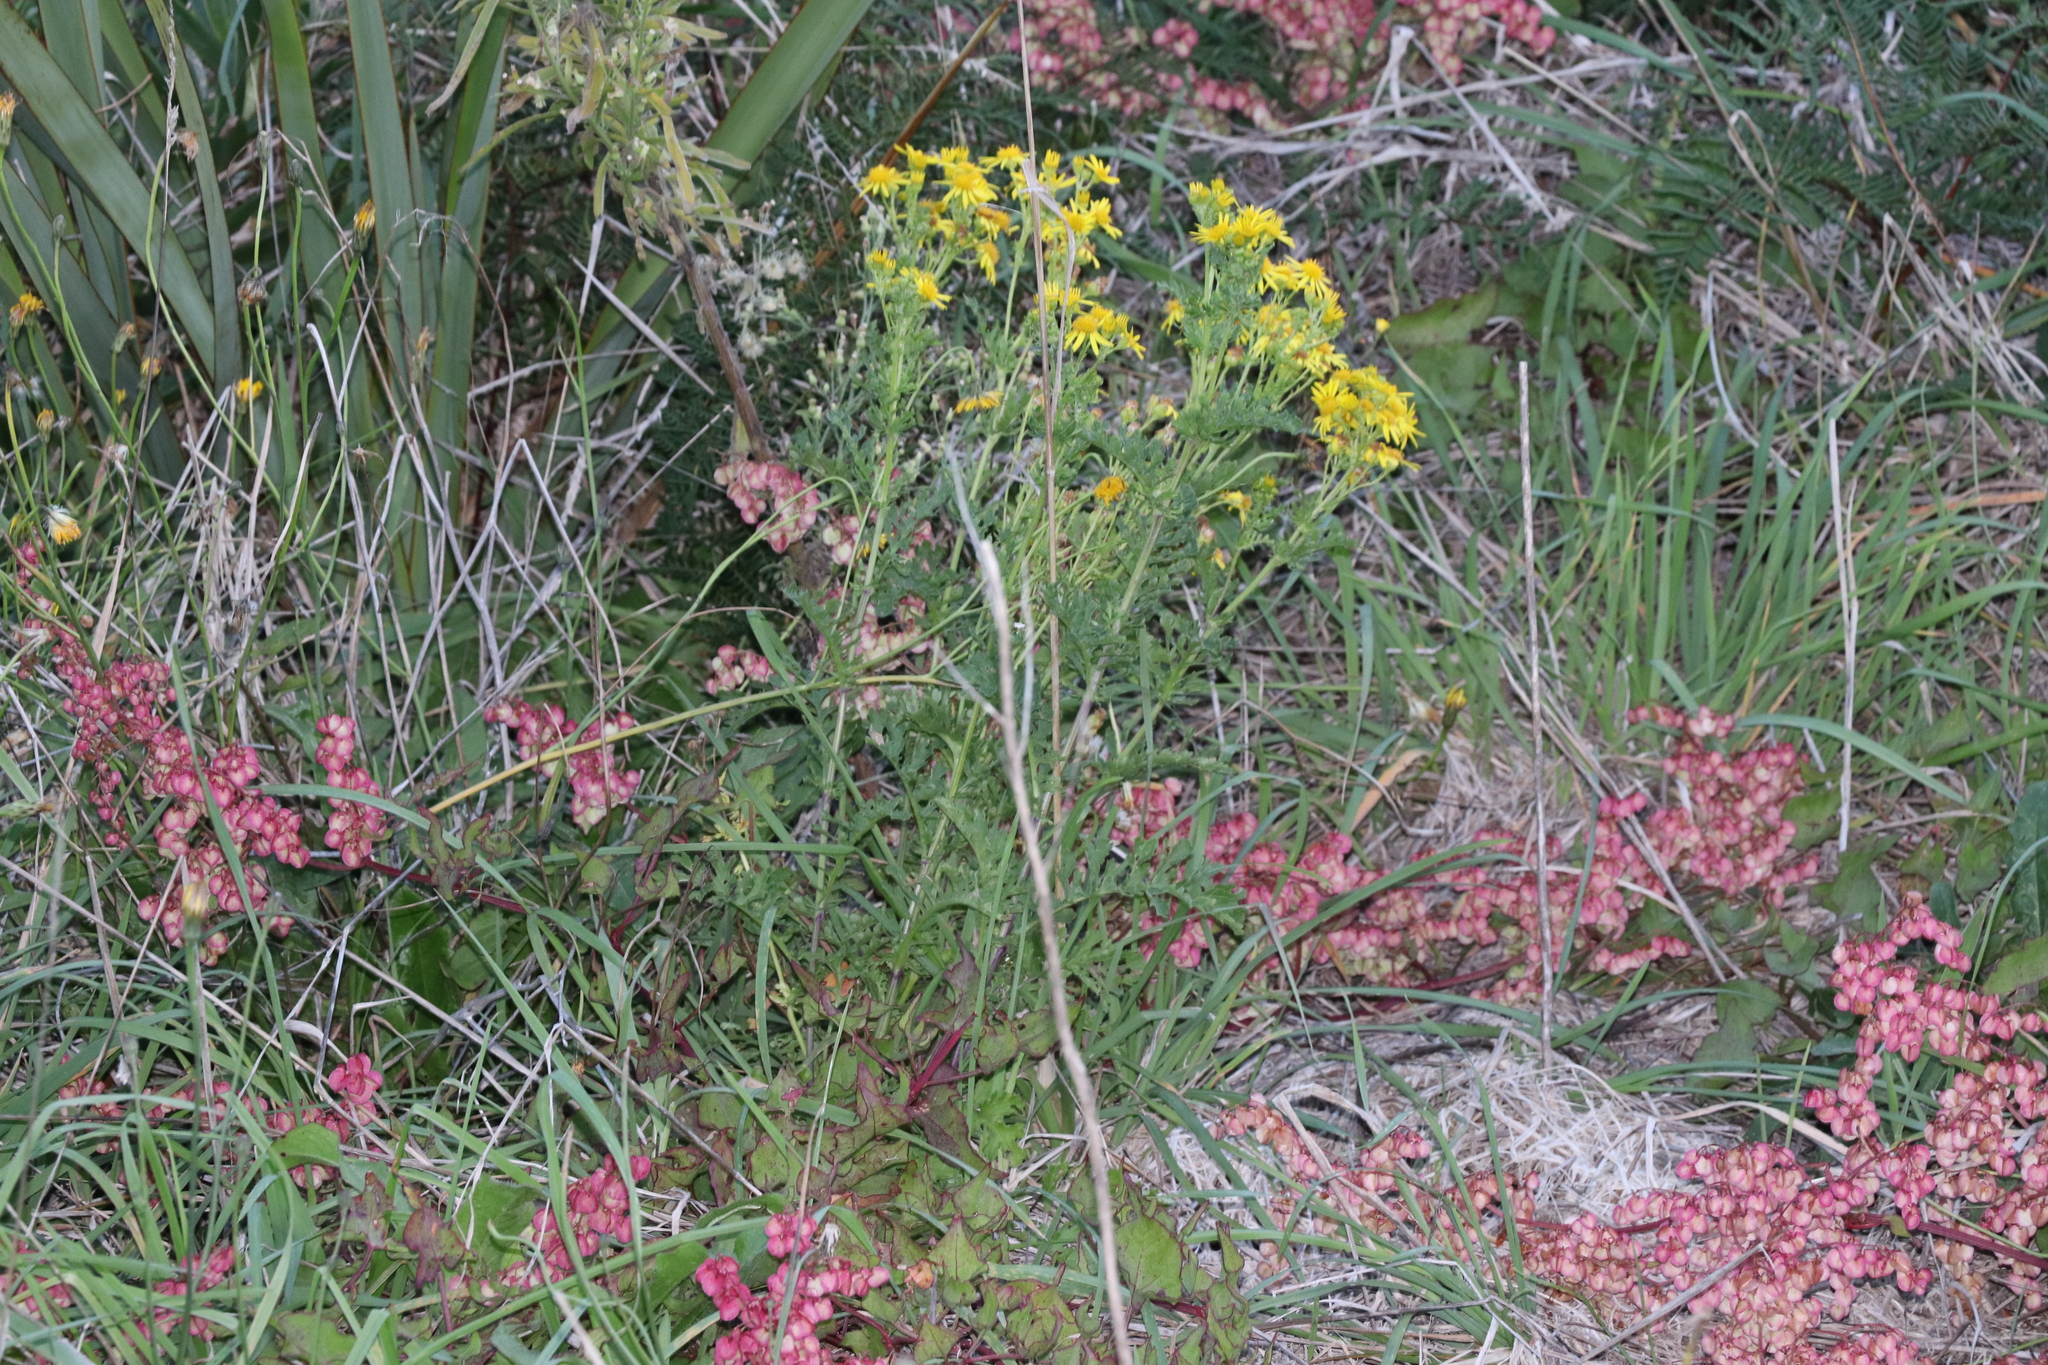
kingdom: Plantae
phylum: Tracheophyta
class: Magnoliopsida
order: Asterales
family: Asteraceae
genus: Jacobaea
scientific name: Jacobaea vulgaris
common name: Stinking willie
